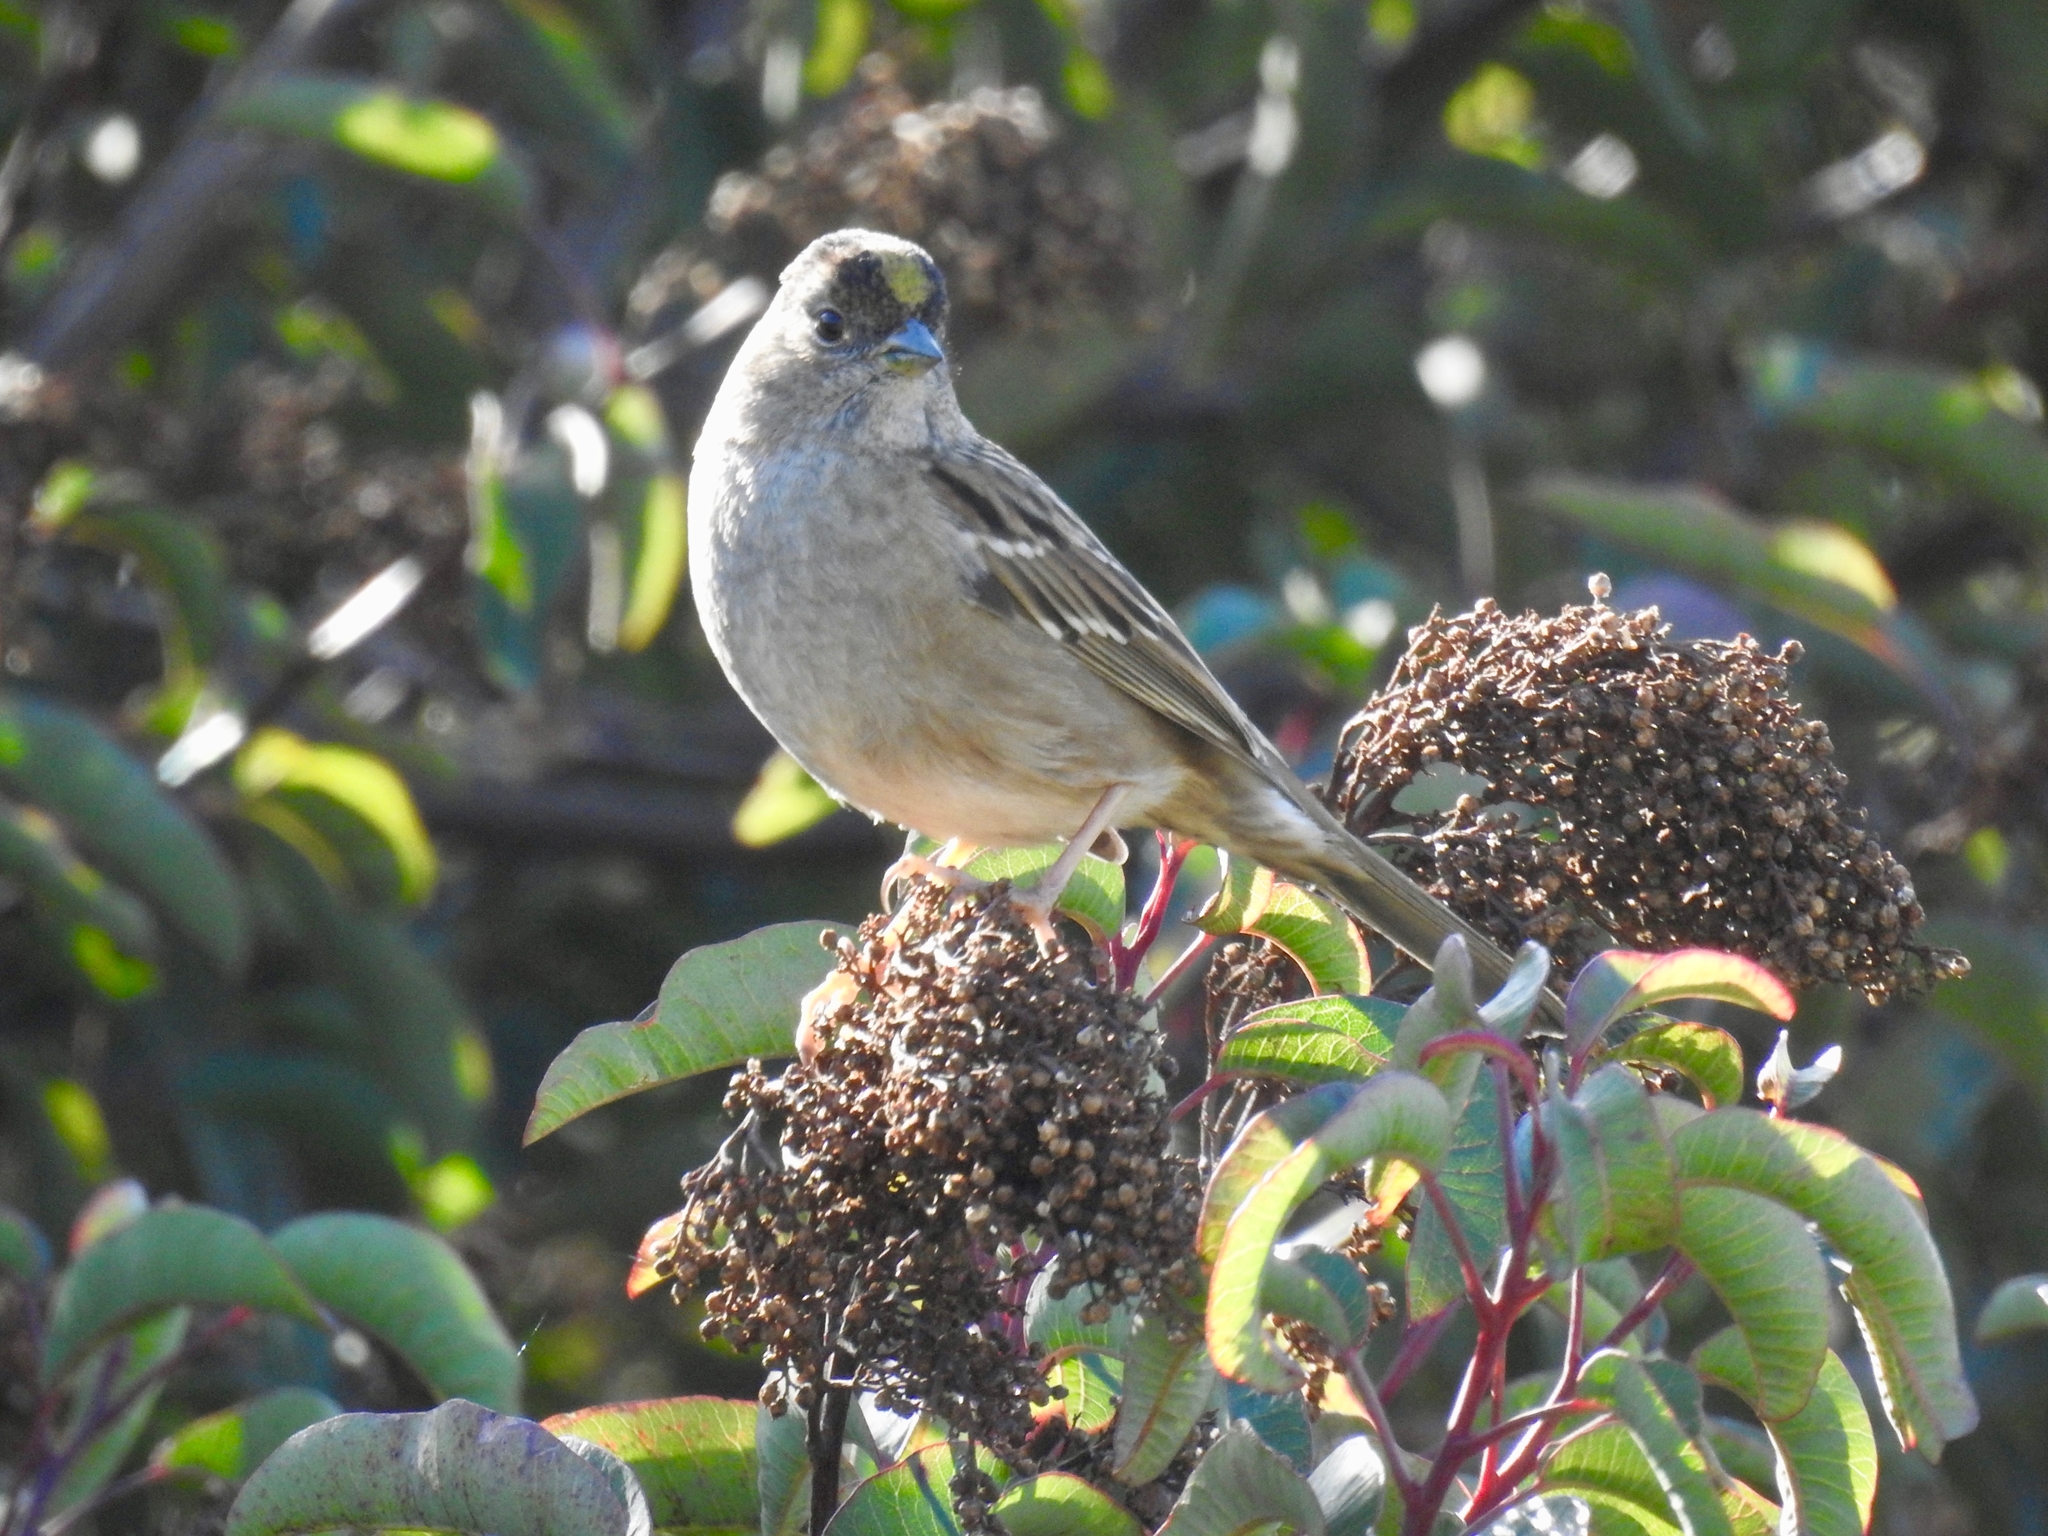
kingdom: Animalia
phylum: Chordata
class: Aves
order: Passeriformes
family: Passerellidae
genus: Zonotrichia
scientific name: Zonotrichia atricapilla
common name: Golden-crowned sparrow
